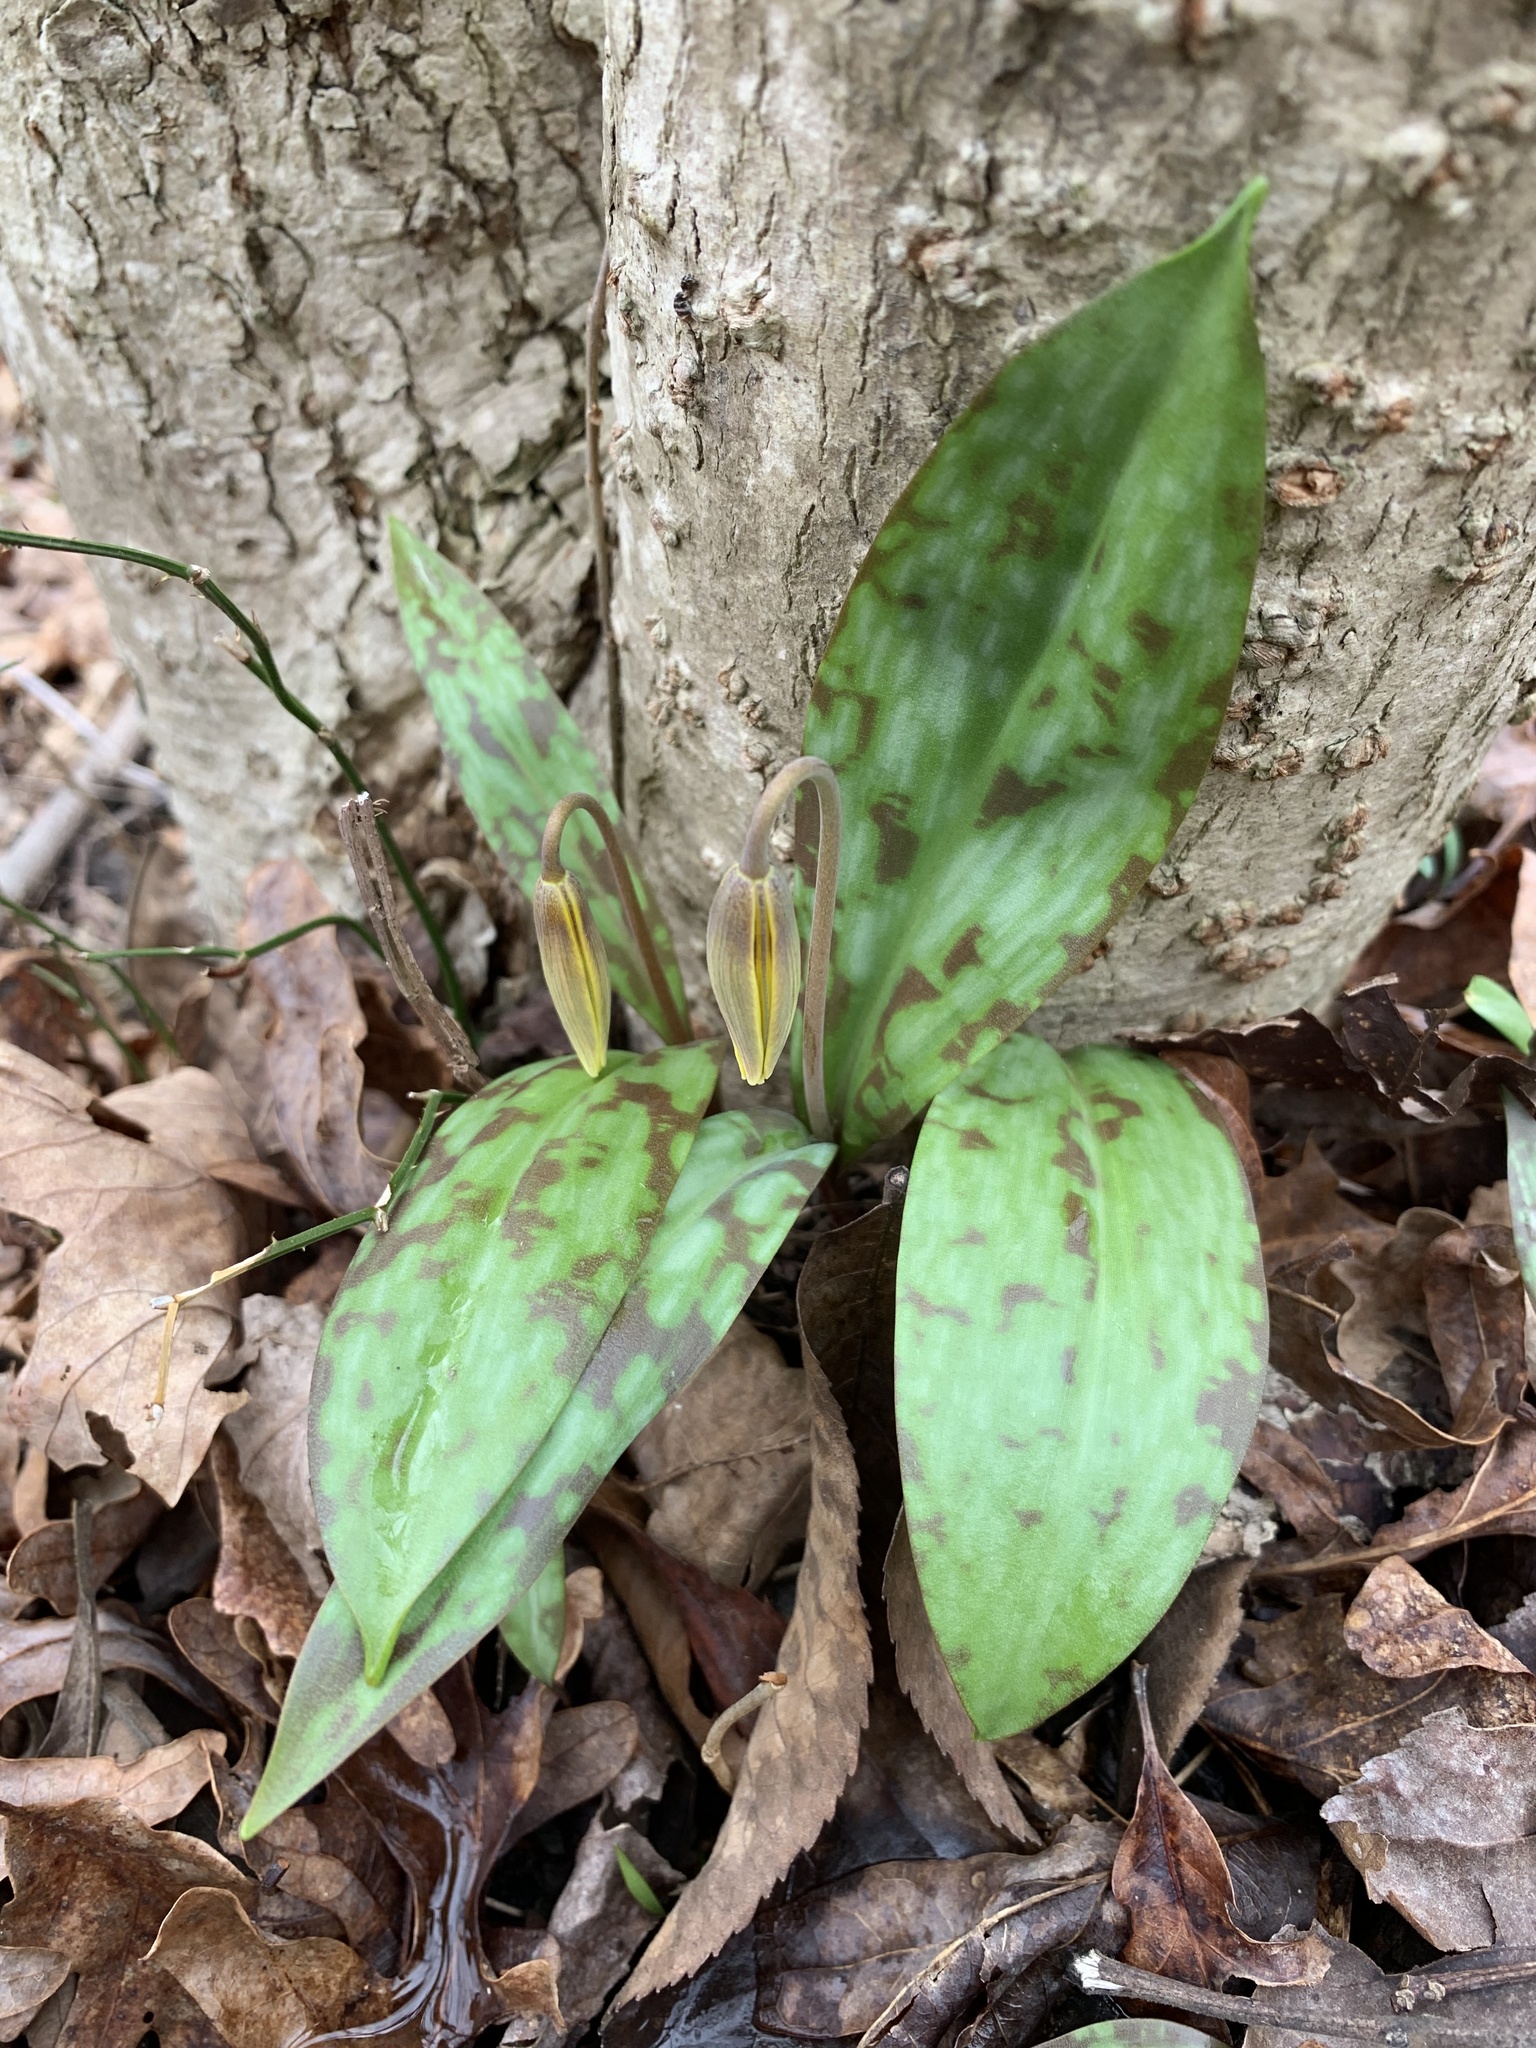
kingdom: Plantae
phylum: Tracheophyta
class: Liliopsida
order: Liliales
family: Liliaceae
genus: Erythronium
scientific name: Erythronium americanum
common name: Yellow adder's-tongue
